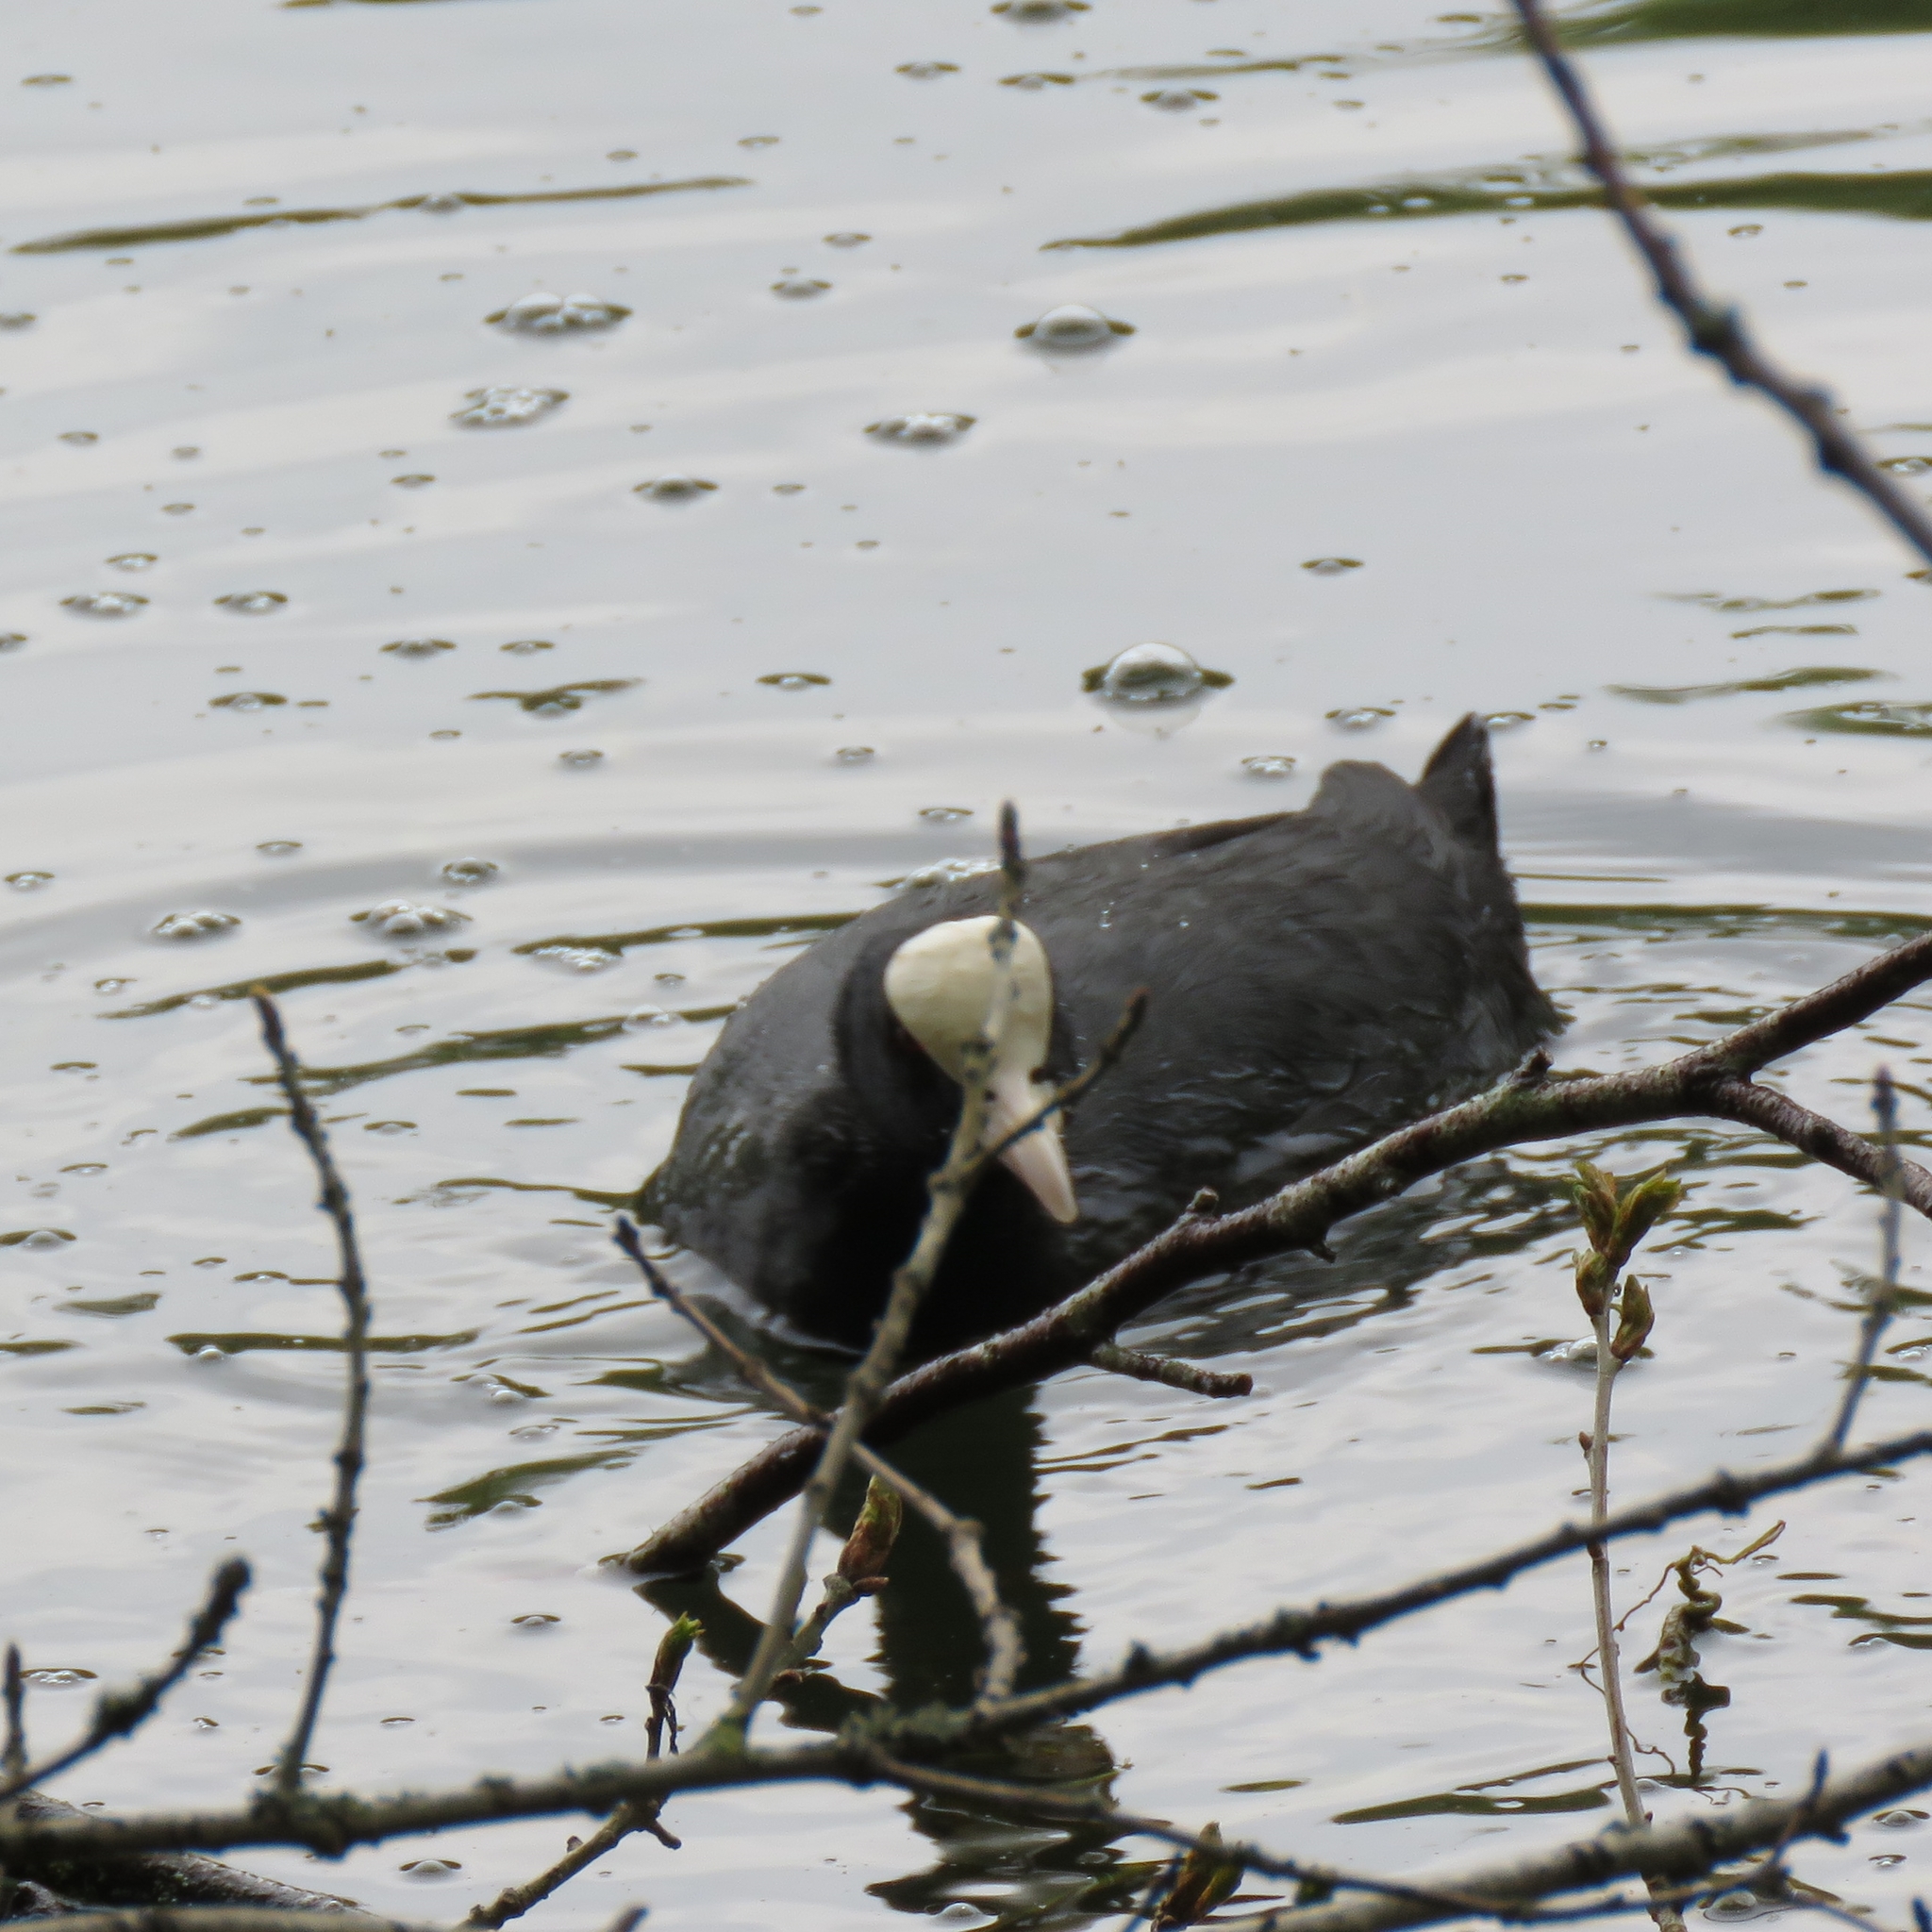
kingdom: Animalia
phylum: Chordata
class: Aves
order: Gruiformes
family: Rallidae
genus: Fulica
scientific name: Fulica atra
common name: Eurasian coot
